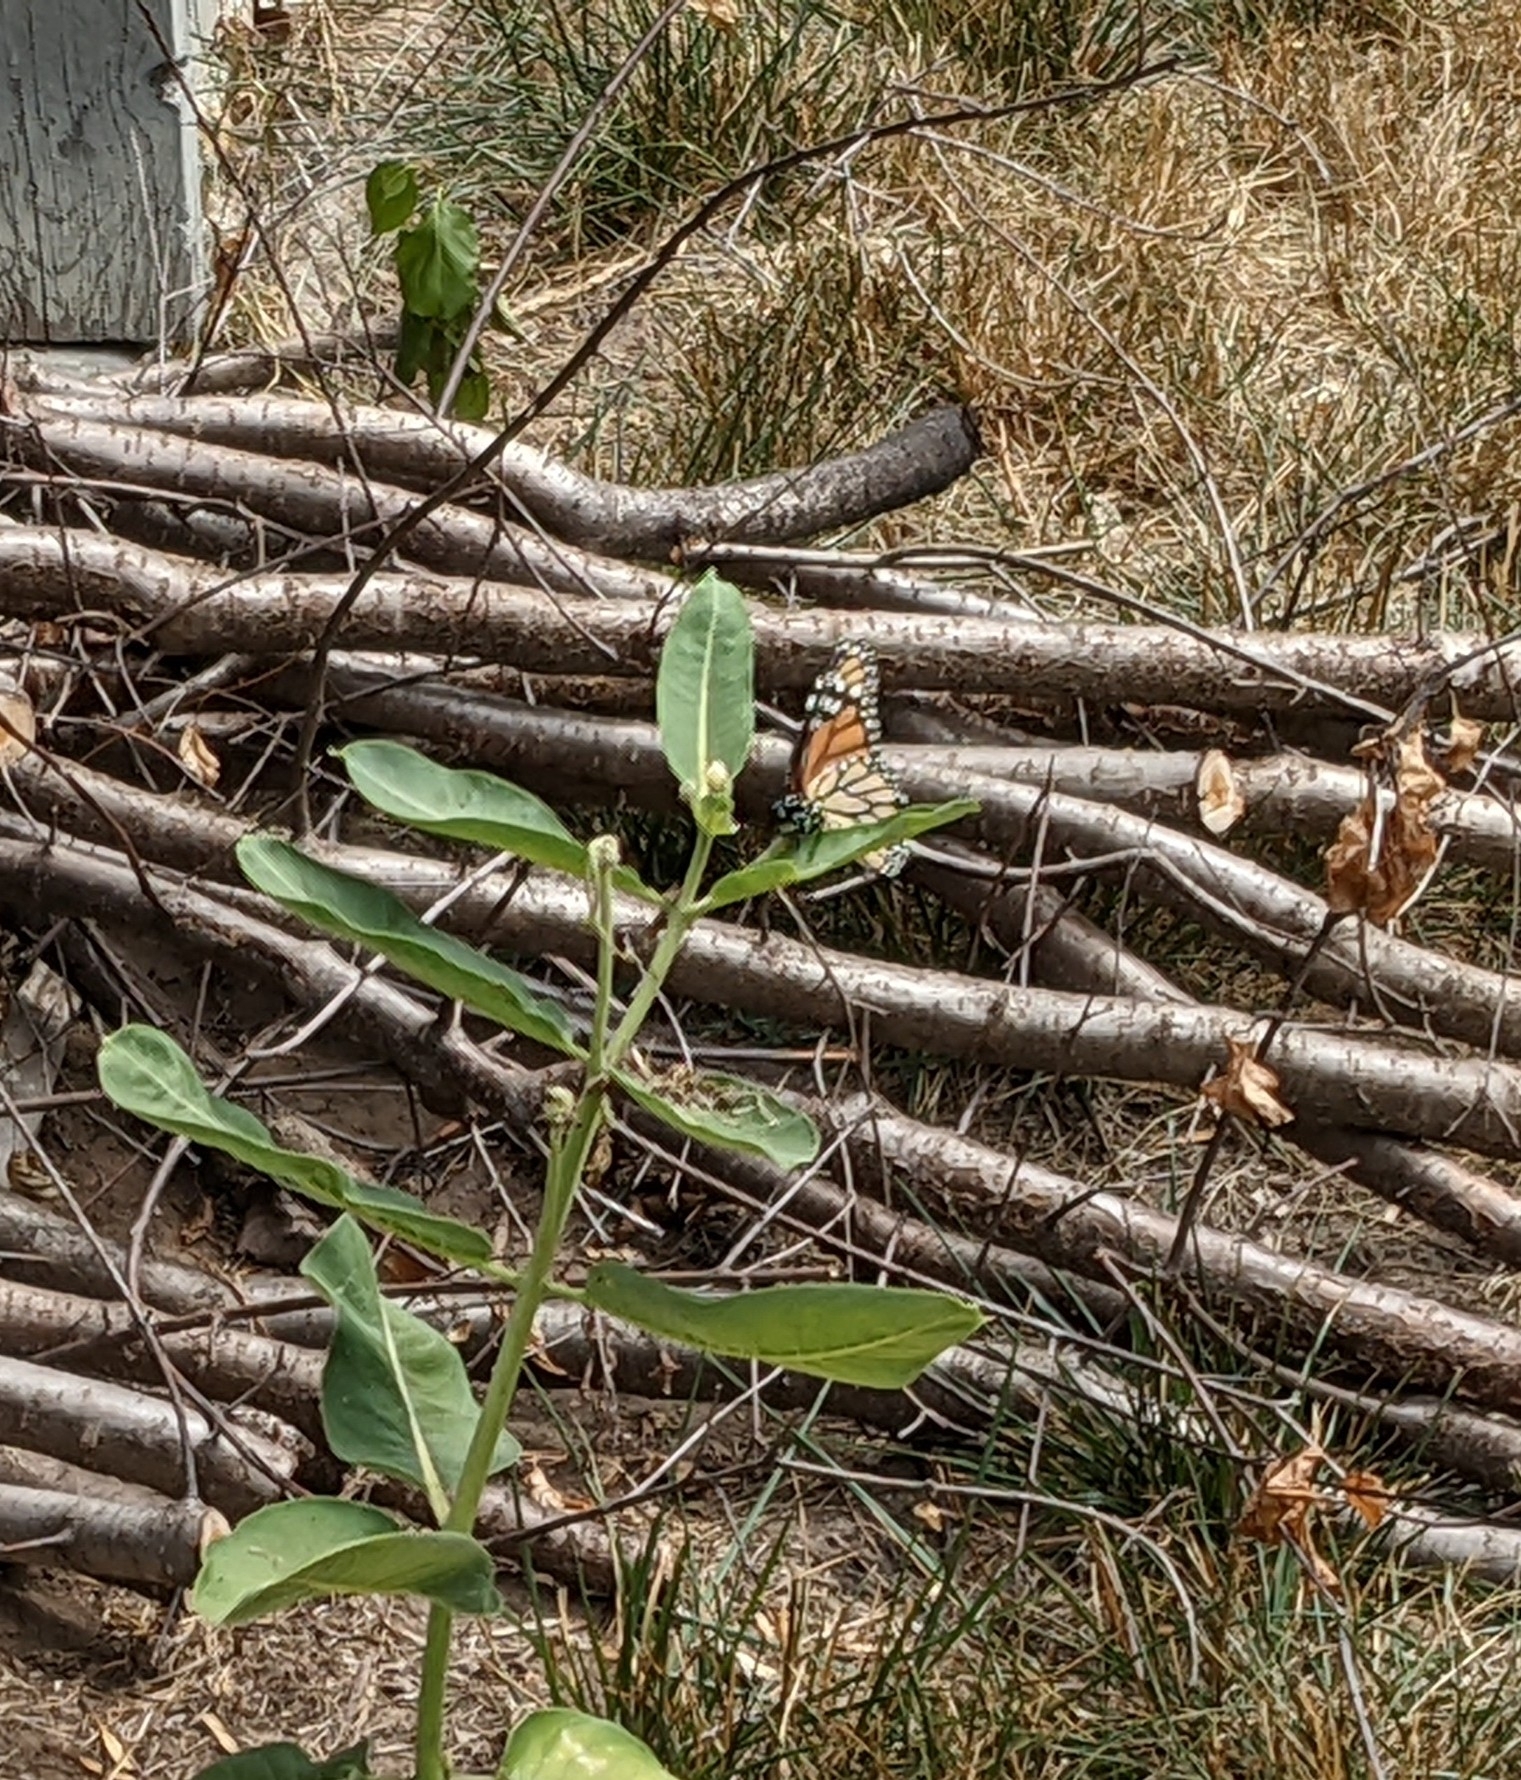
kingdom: Animalia
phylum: Arthropoda
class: Insecta
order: Lepidoptera
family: Nymphalidae
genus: Danaus
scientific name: Danaus plexippus
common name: Monarch
